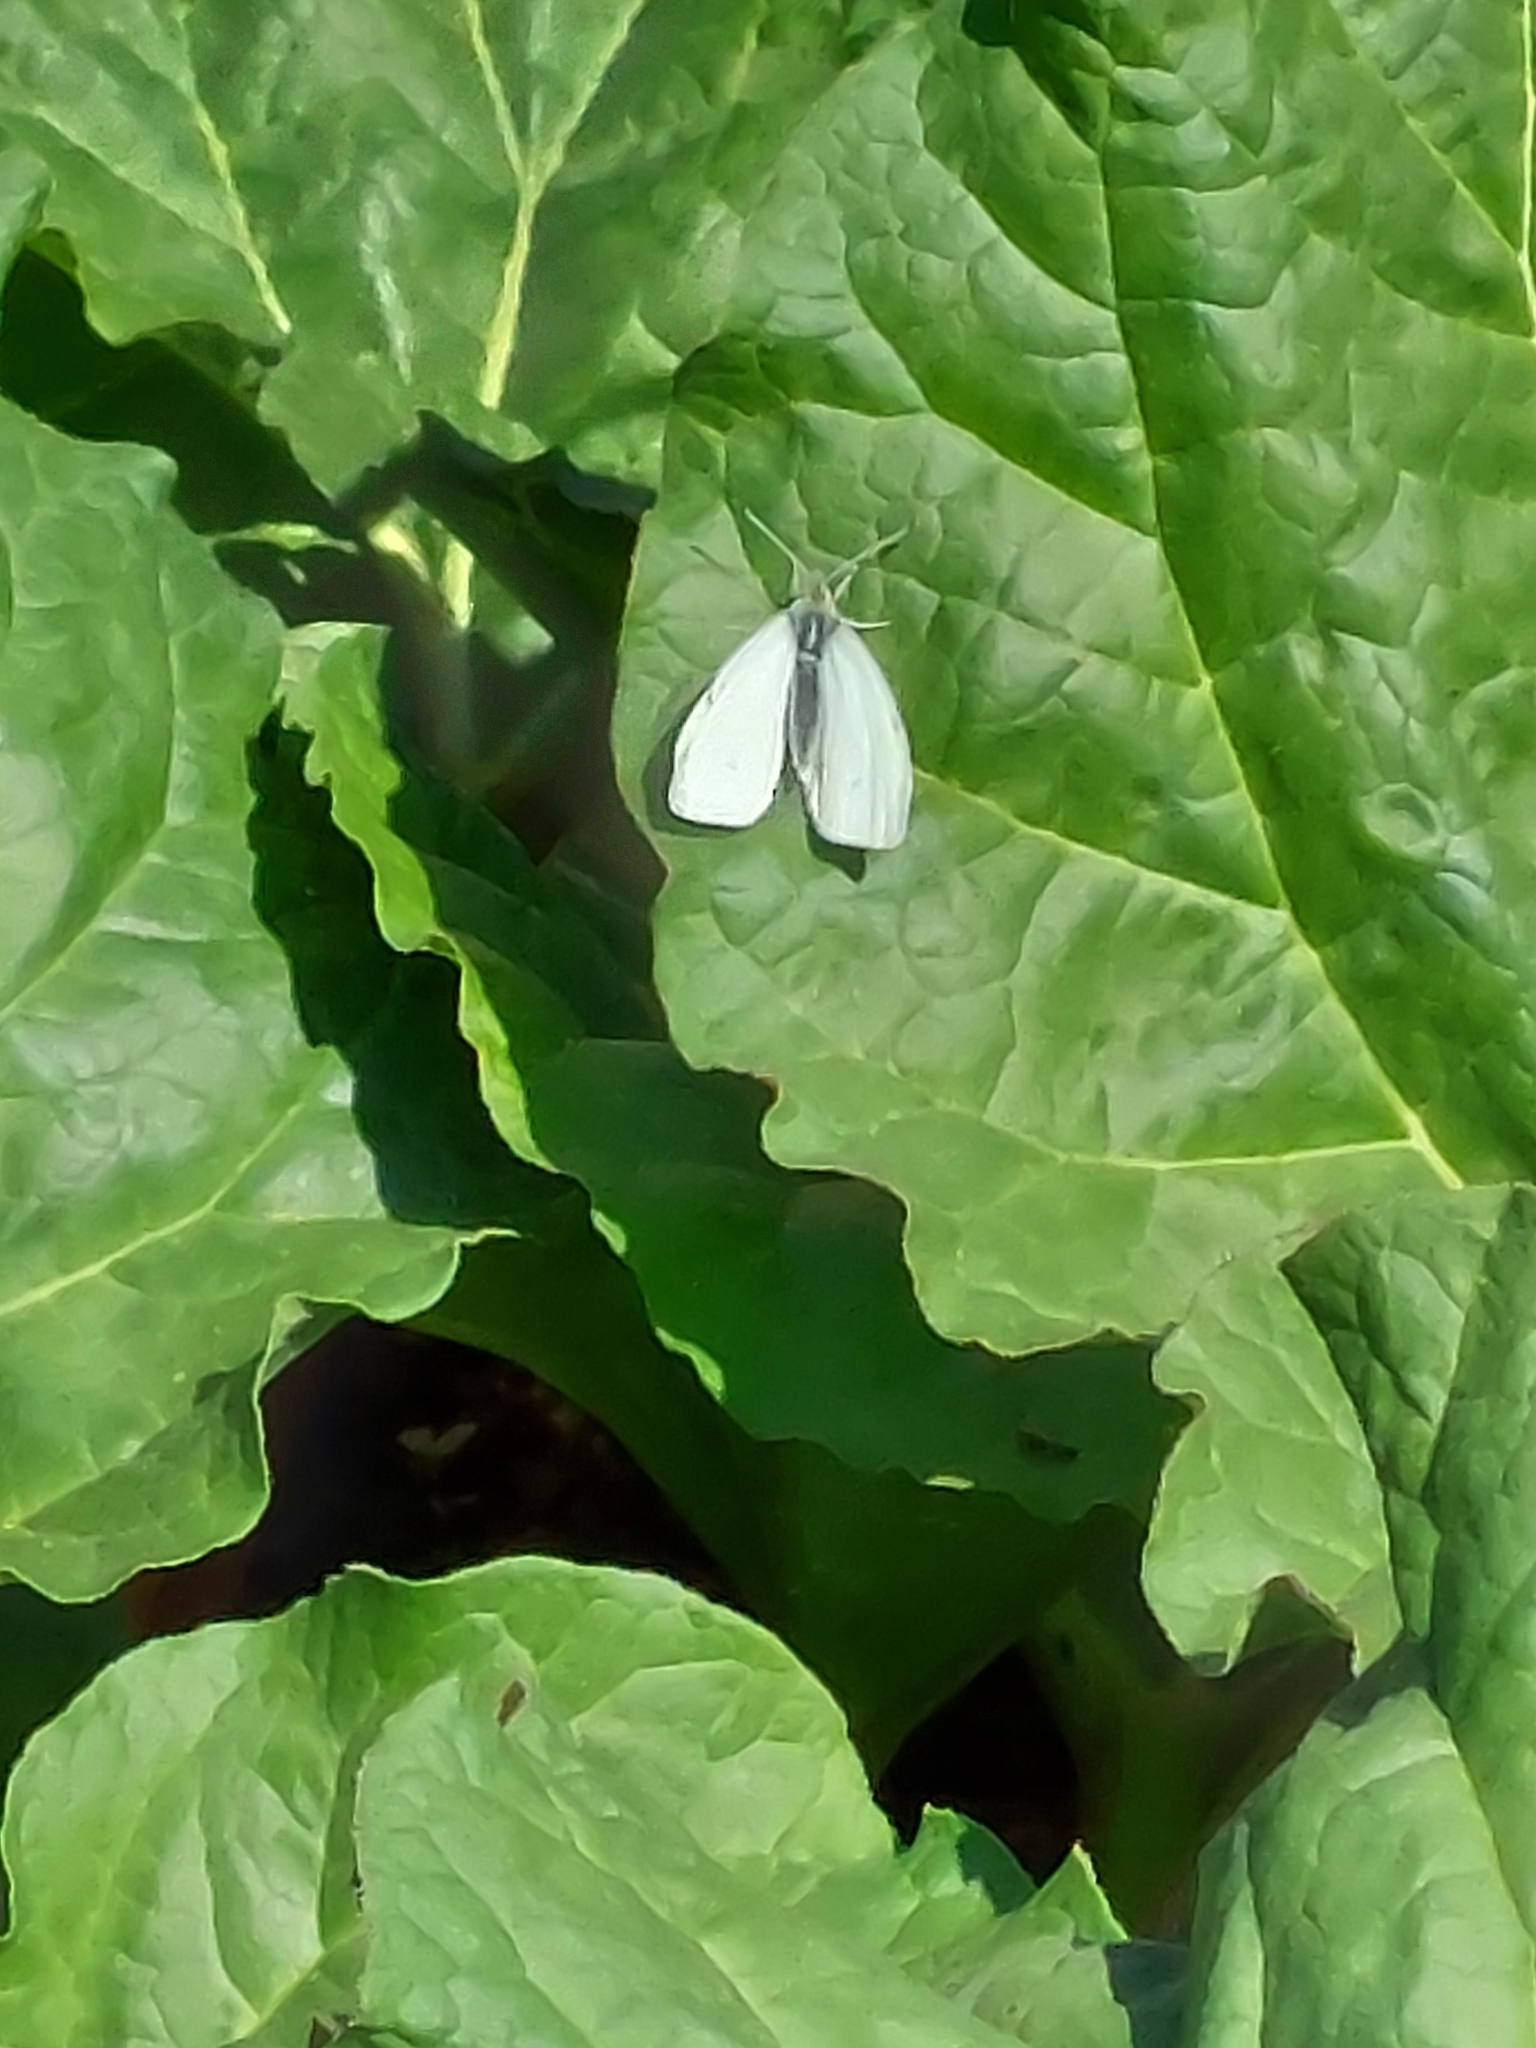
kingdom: Animalia
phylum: Arthropoda
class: Insecta
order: Lepidoptera
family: Pieridae
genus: Pieris
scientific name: Pieris rapae
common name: Small white
